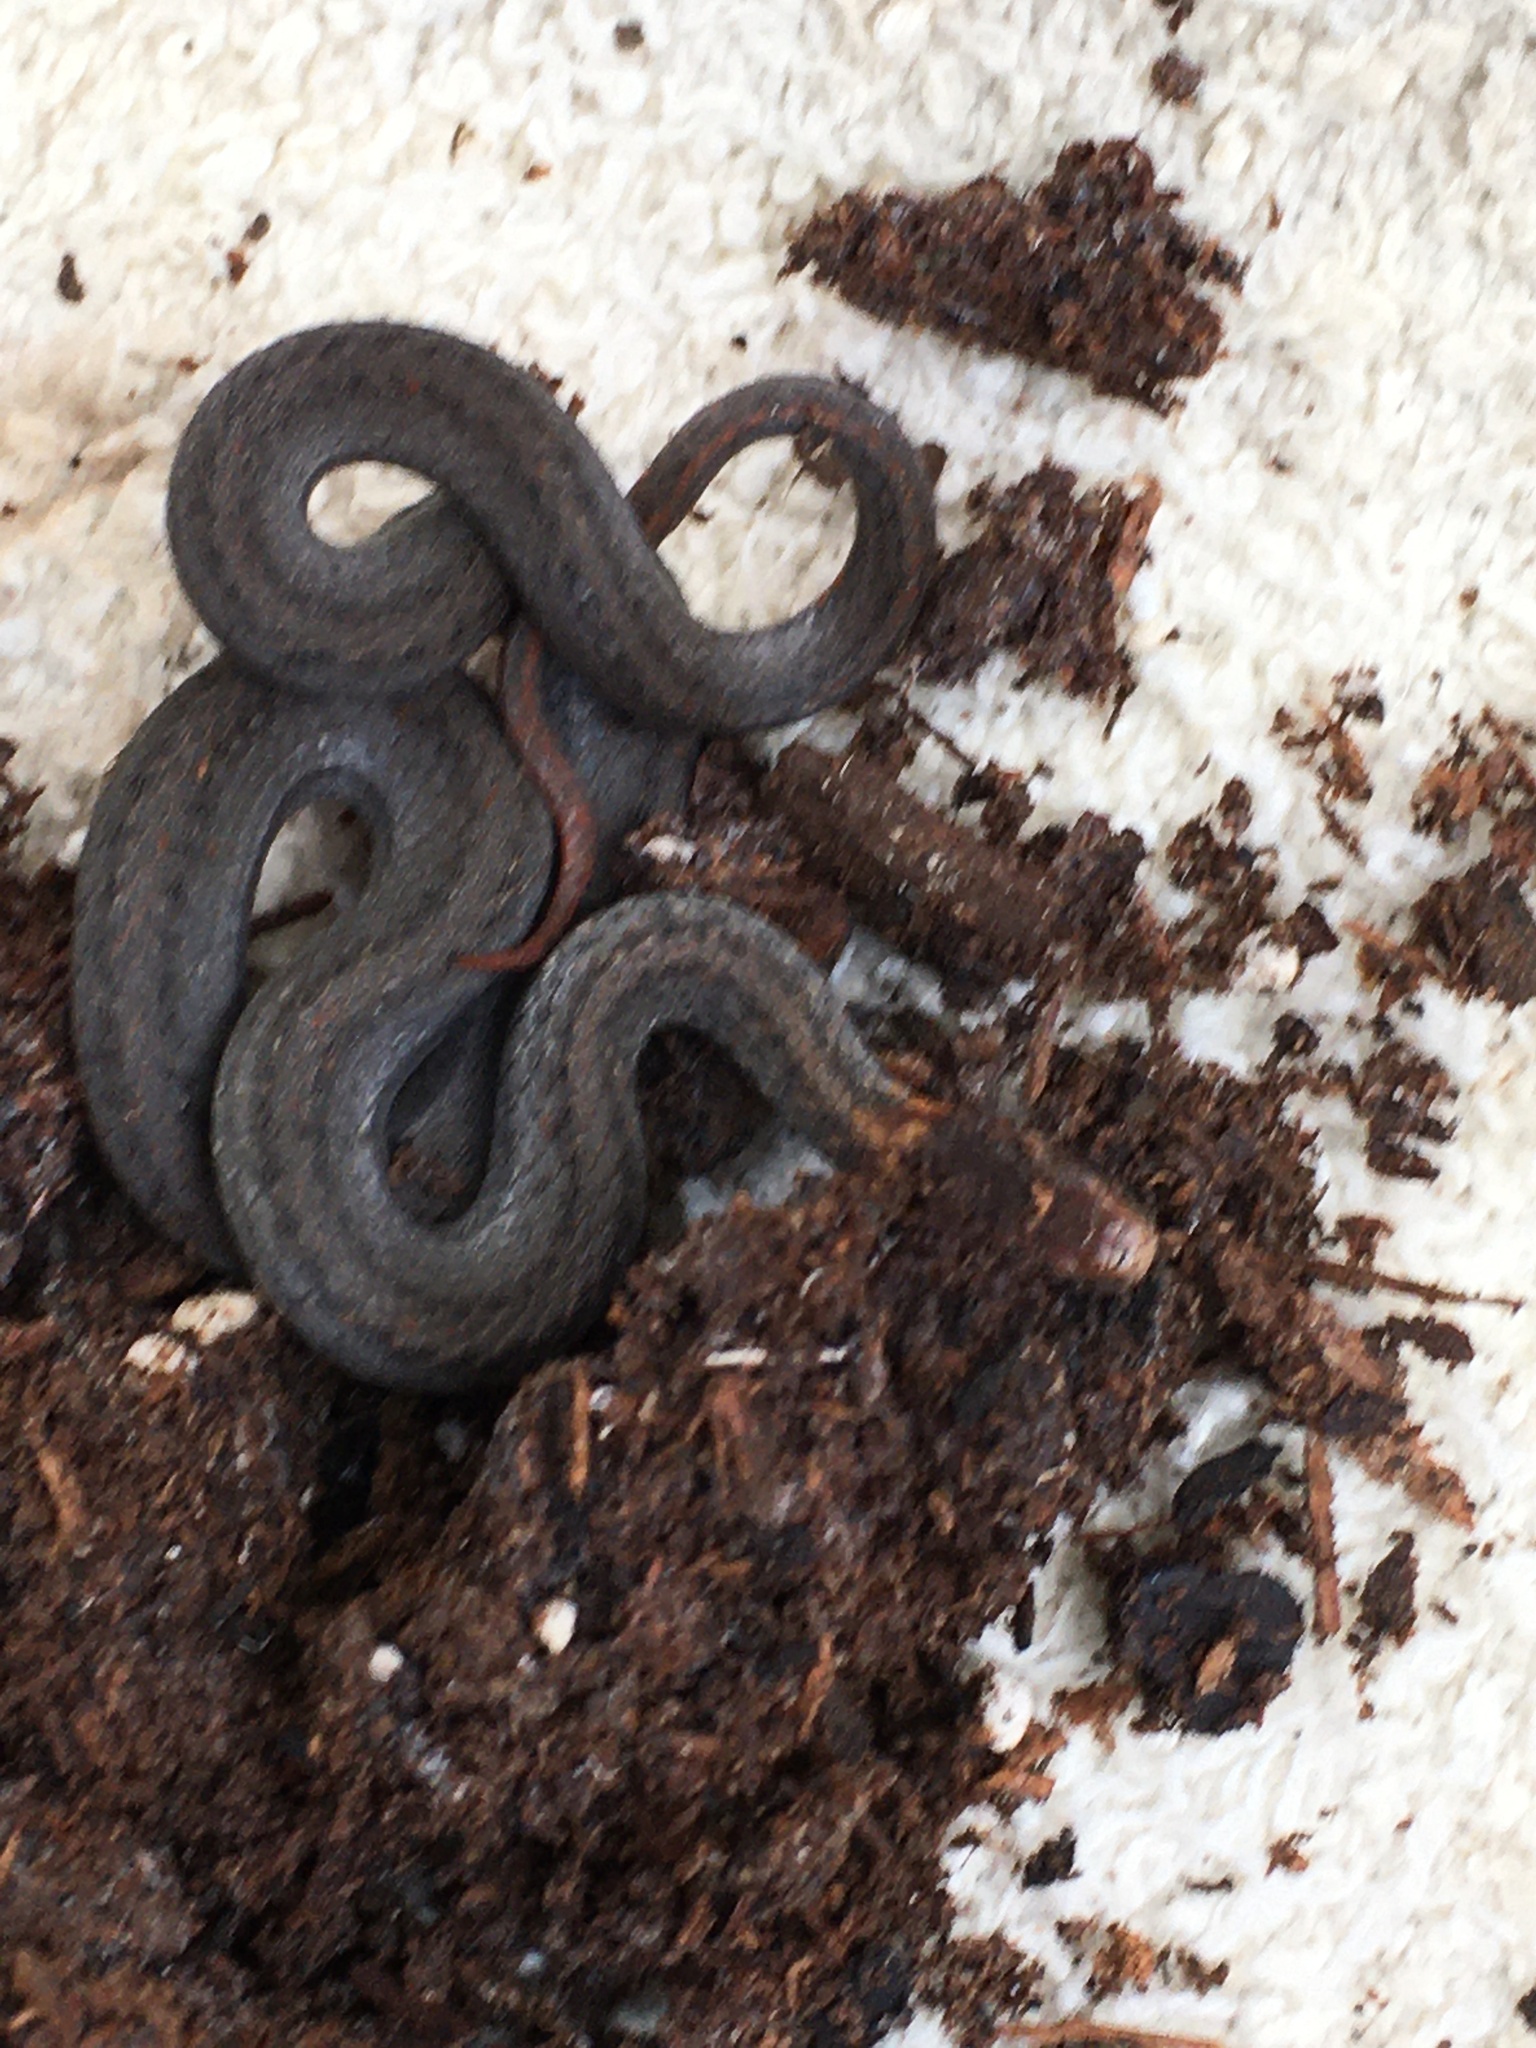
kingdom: Animalia
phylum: Chordata
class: Squamata
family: Colubridae
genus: Storeria
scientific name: Storeria occipitomaculata
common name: Redbelly snake
